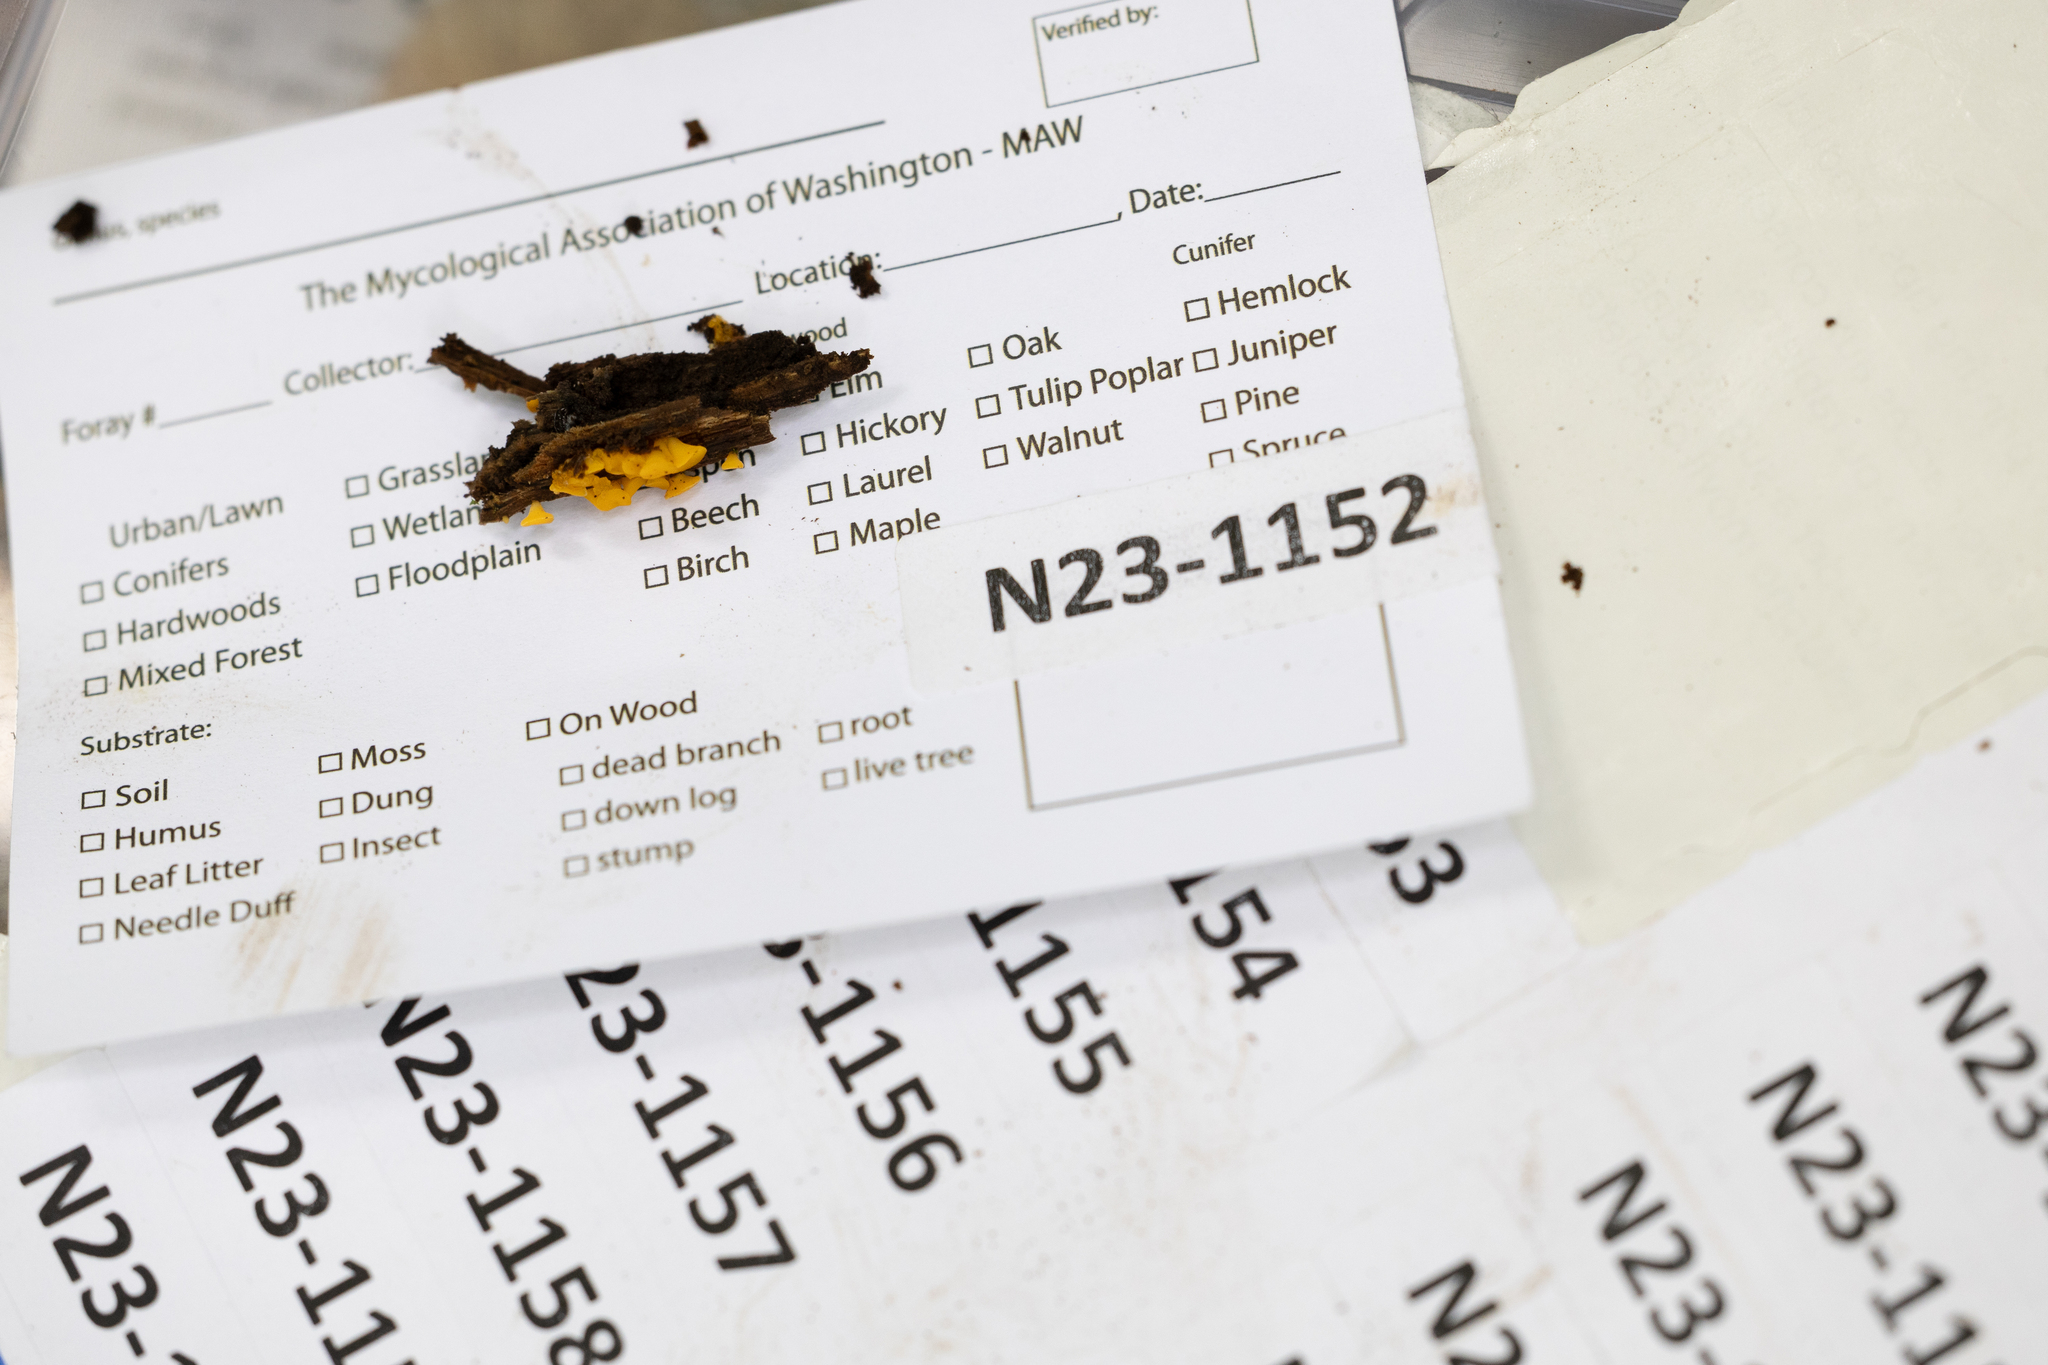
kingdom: Fungi
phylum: Ascomycota
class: Leotiomycetes
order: Helotiales
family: Pezizellaceae
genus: Calycina
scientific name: Calycina citrina
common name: Yellow fairy cups
